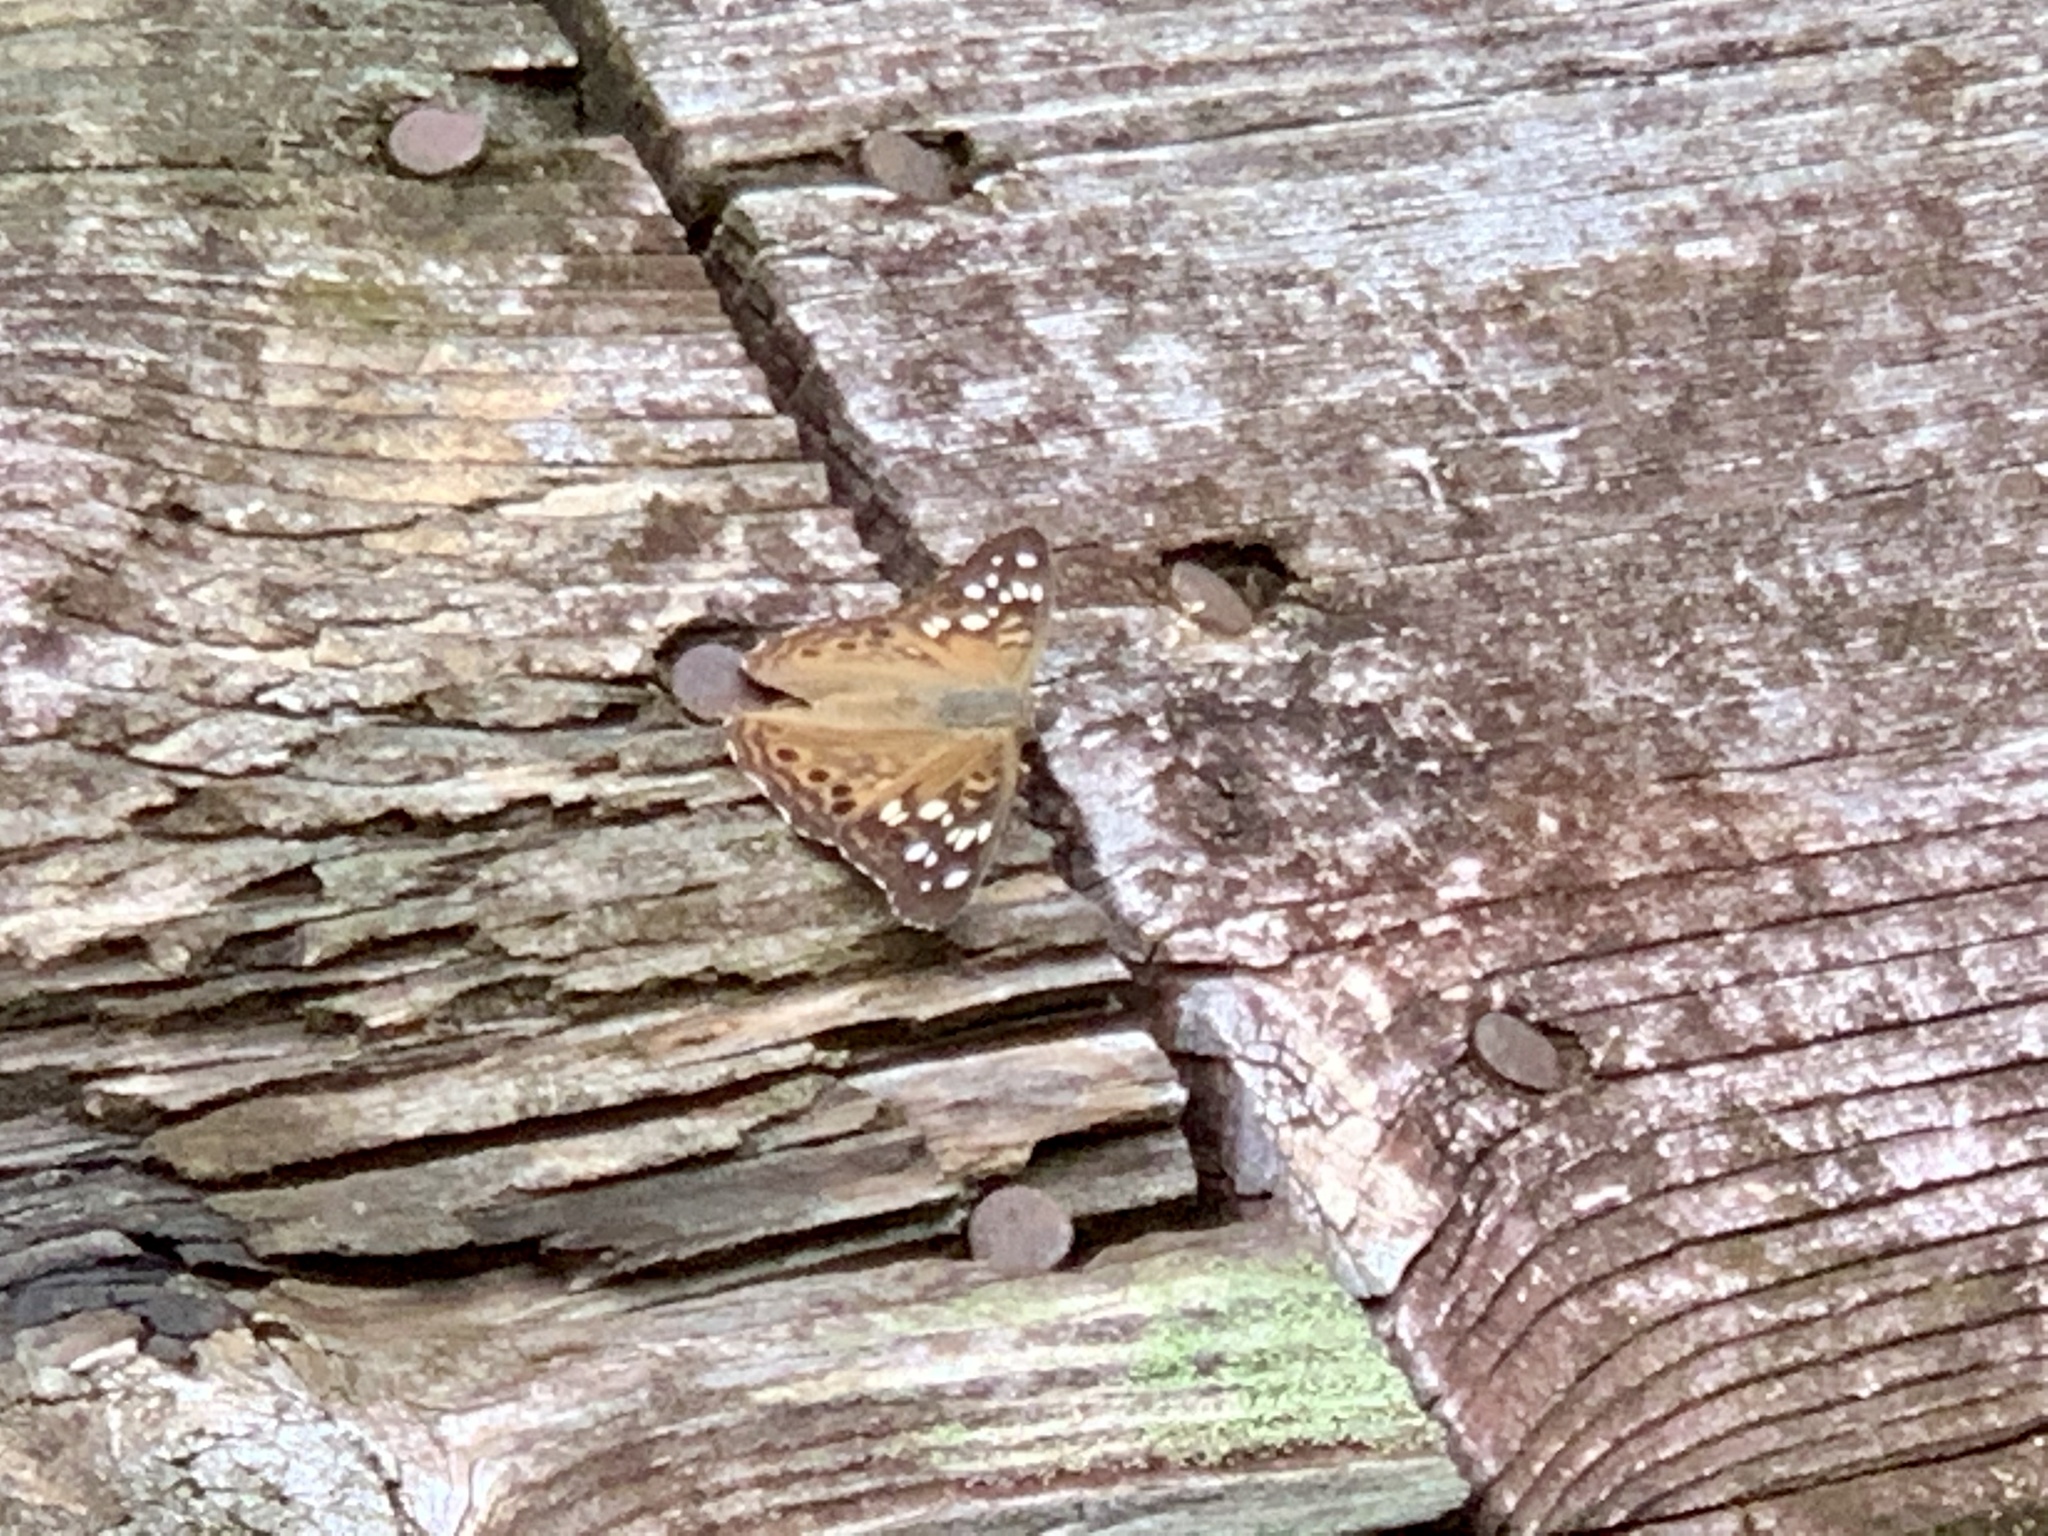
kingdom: Animalia
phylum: Arthropoda
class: Insecta
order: Lepidoptera
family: Nymphalidae
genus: Asterocampa
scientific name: Asterocampa celtis
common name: Hackberry emperor
